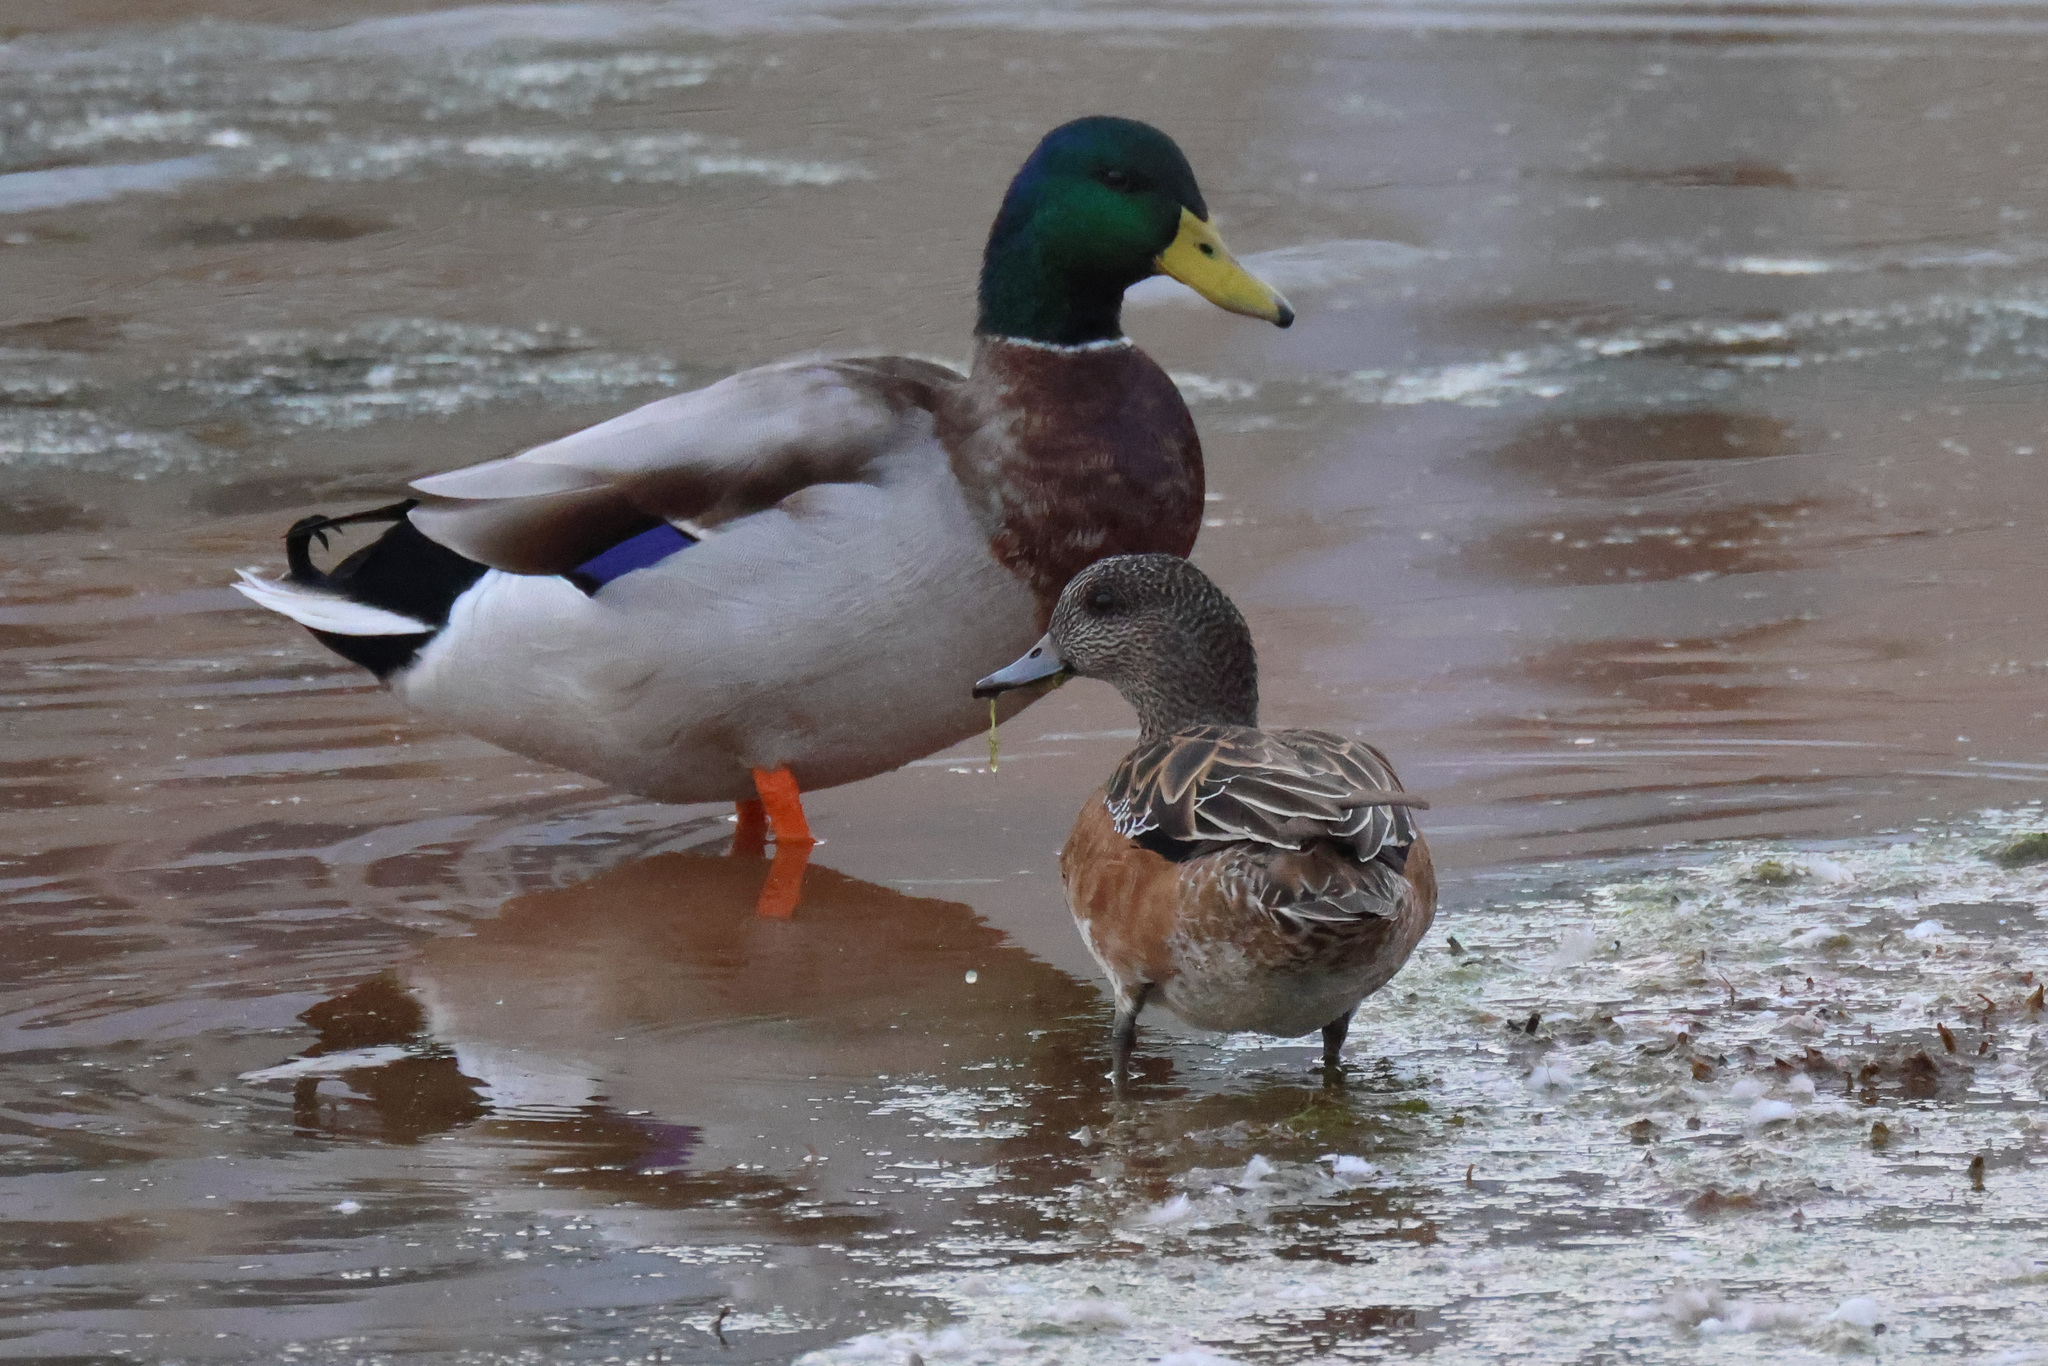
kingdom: Animalia
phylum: Chordata
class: Aves
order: Anseriformes
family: Anatidae
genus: Mareca
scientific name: Mareca americana
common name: American wigeon
